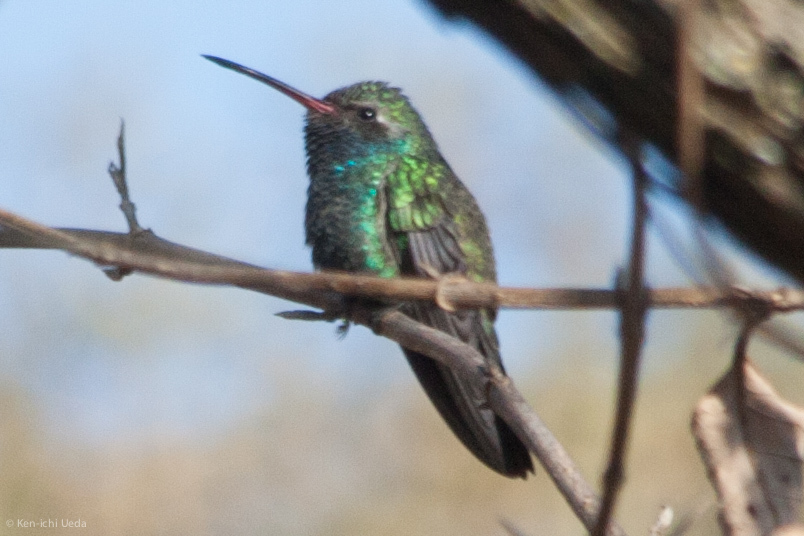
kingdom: Animalia
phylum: Chordata
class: Aves
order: Apodiformes
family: Trochilidae
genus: Cynanthus
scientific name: Cynanthus latirostris
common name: Broad-billed hummingbird
